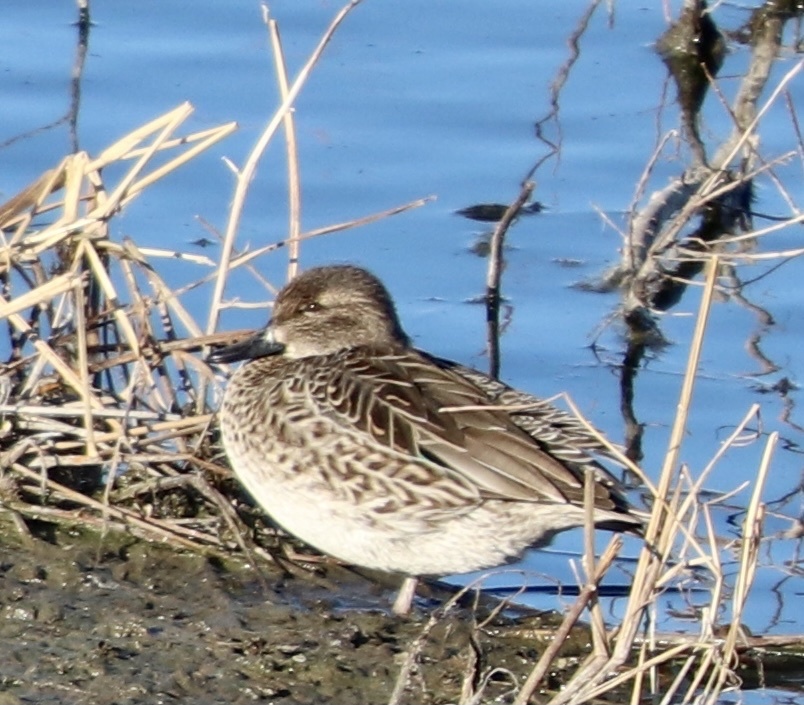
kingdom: Animalia
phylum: Chordata
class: Aves
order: Anseriformes
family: Anatidae
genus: Anas
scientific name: Anas crecca
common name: Eurasian teal
